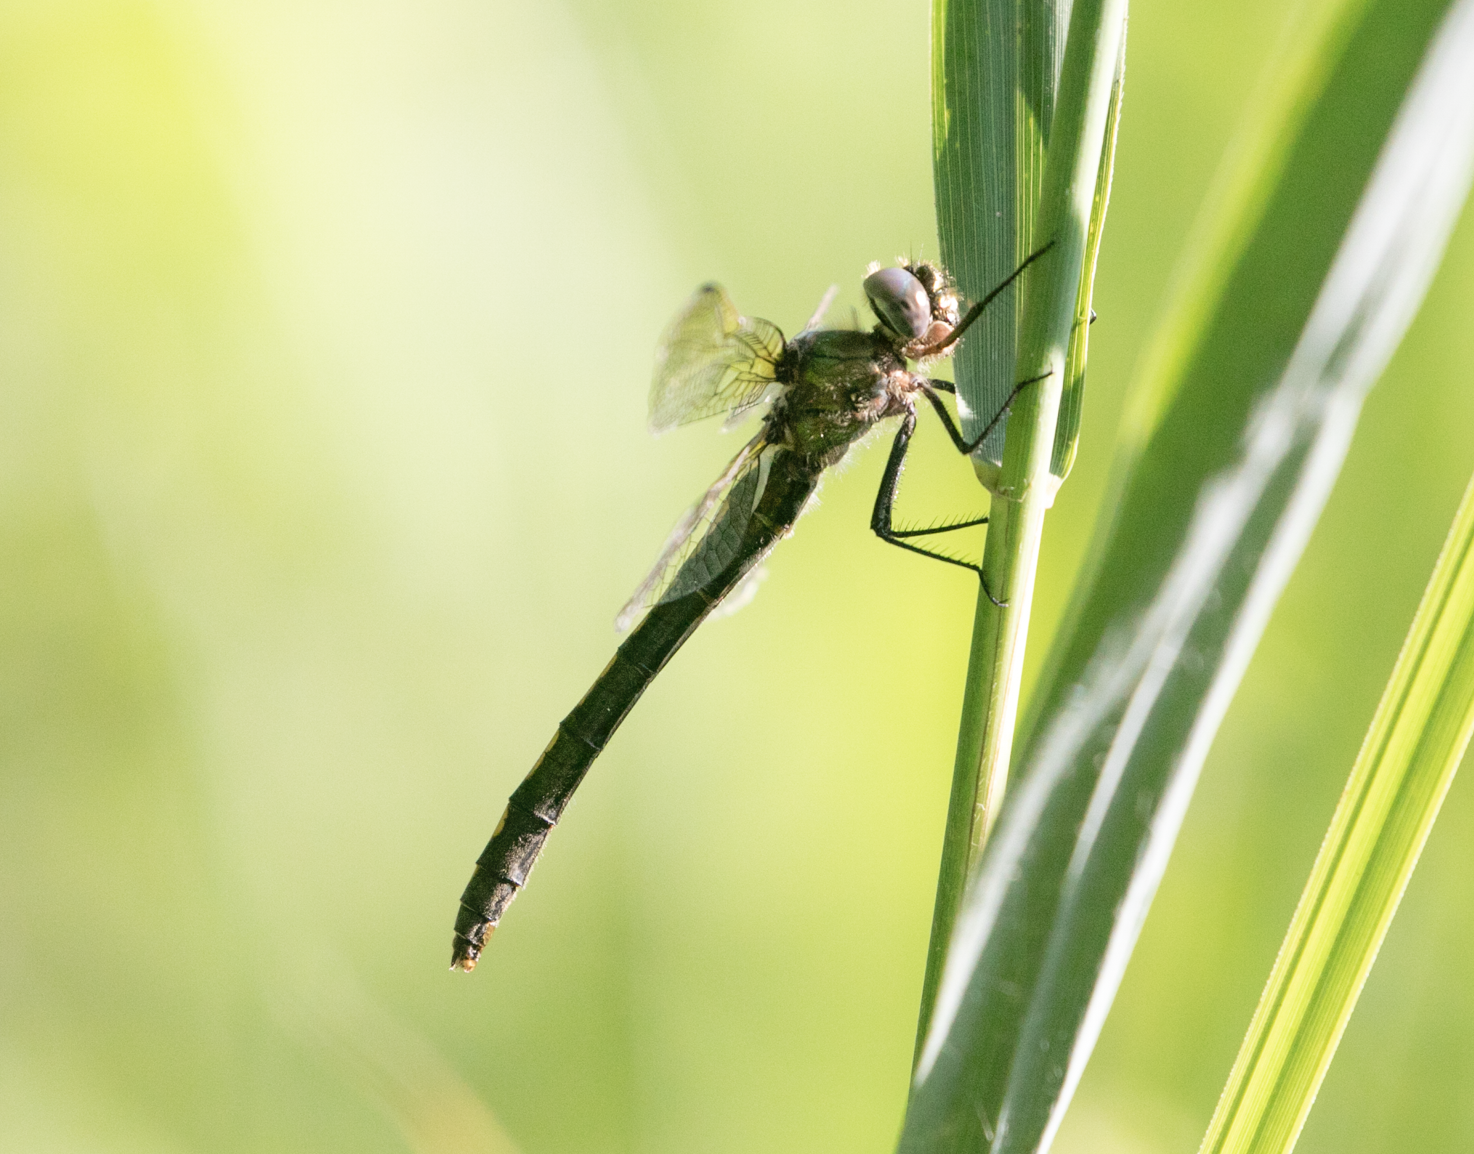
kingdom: Animalia
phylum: Arthropoda
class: Insecta
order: Odonata
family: Corduliidae
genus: Oxygastra
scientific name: Oxygastra curtisii
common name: Orange-spotted emerald
